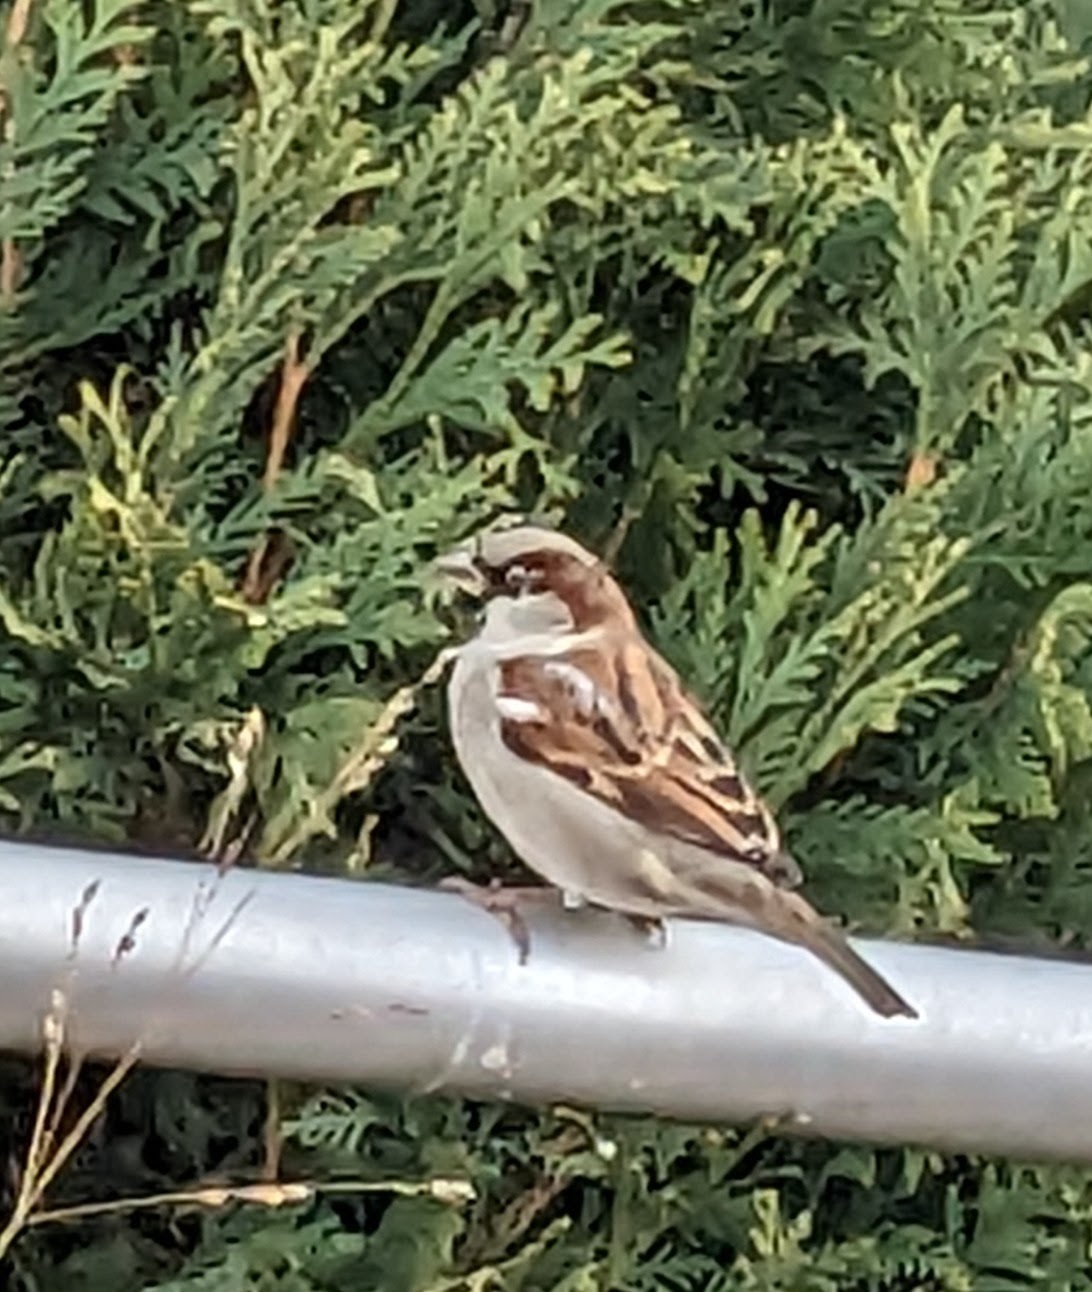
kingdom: Animalia
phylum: Chordata
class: Aves
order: Passeriformes
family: Passeridae
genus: Passer
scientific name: Passer domesticus
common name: House sparrow
